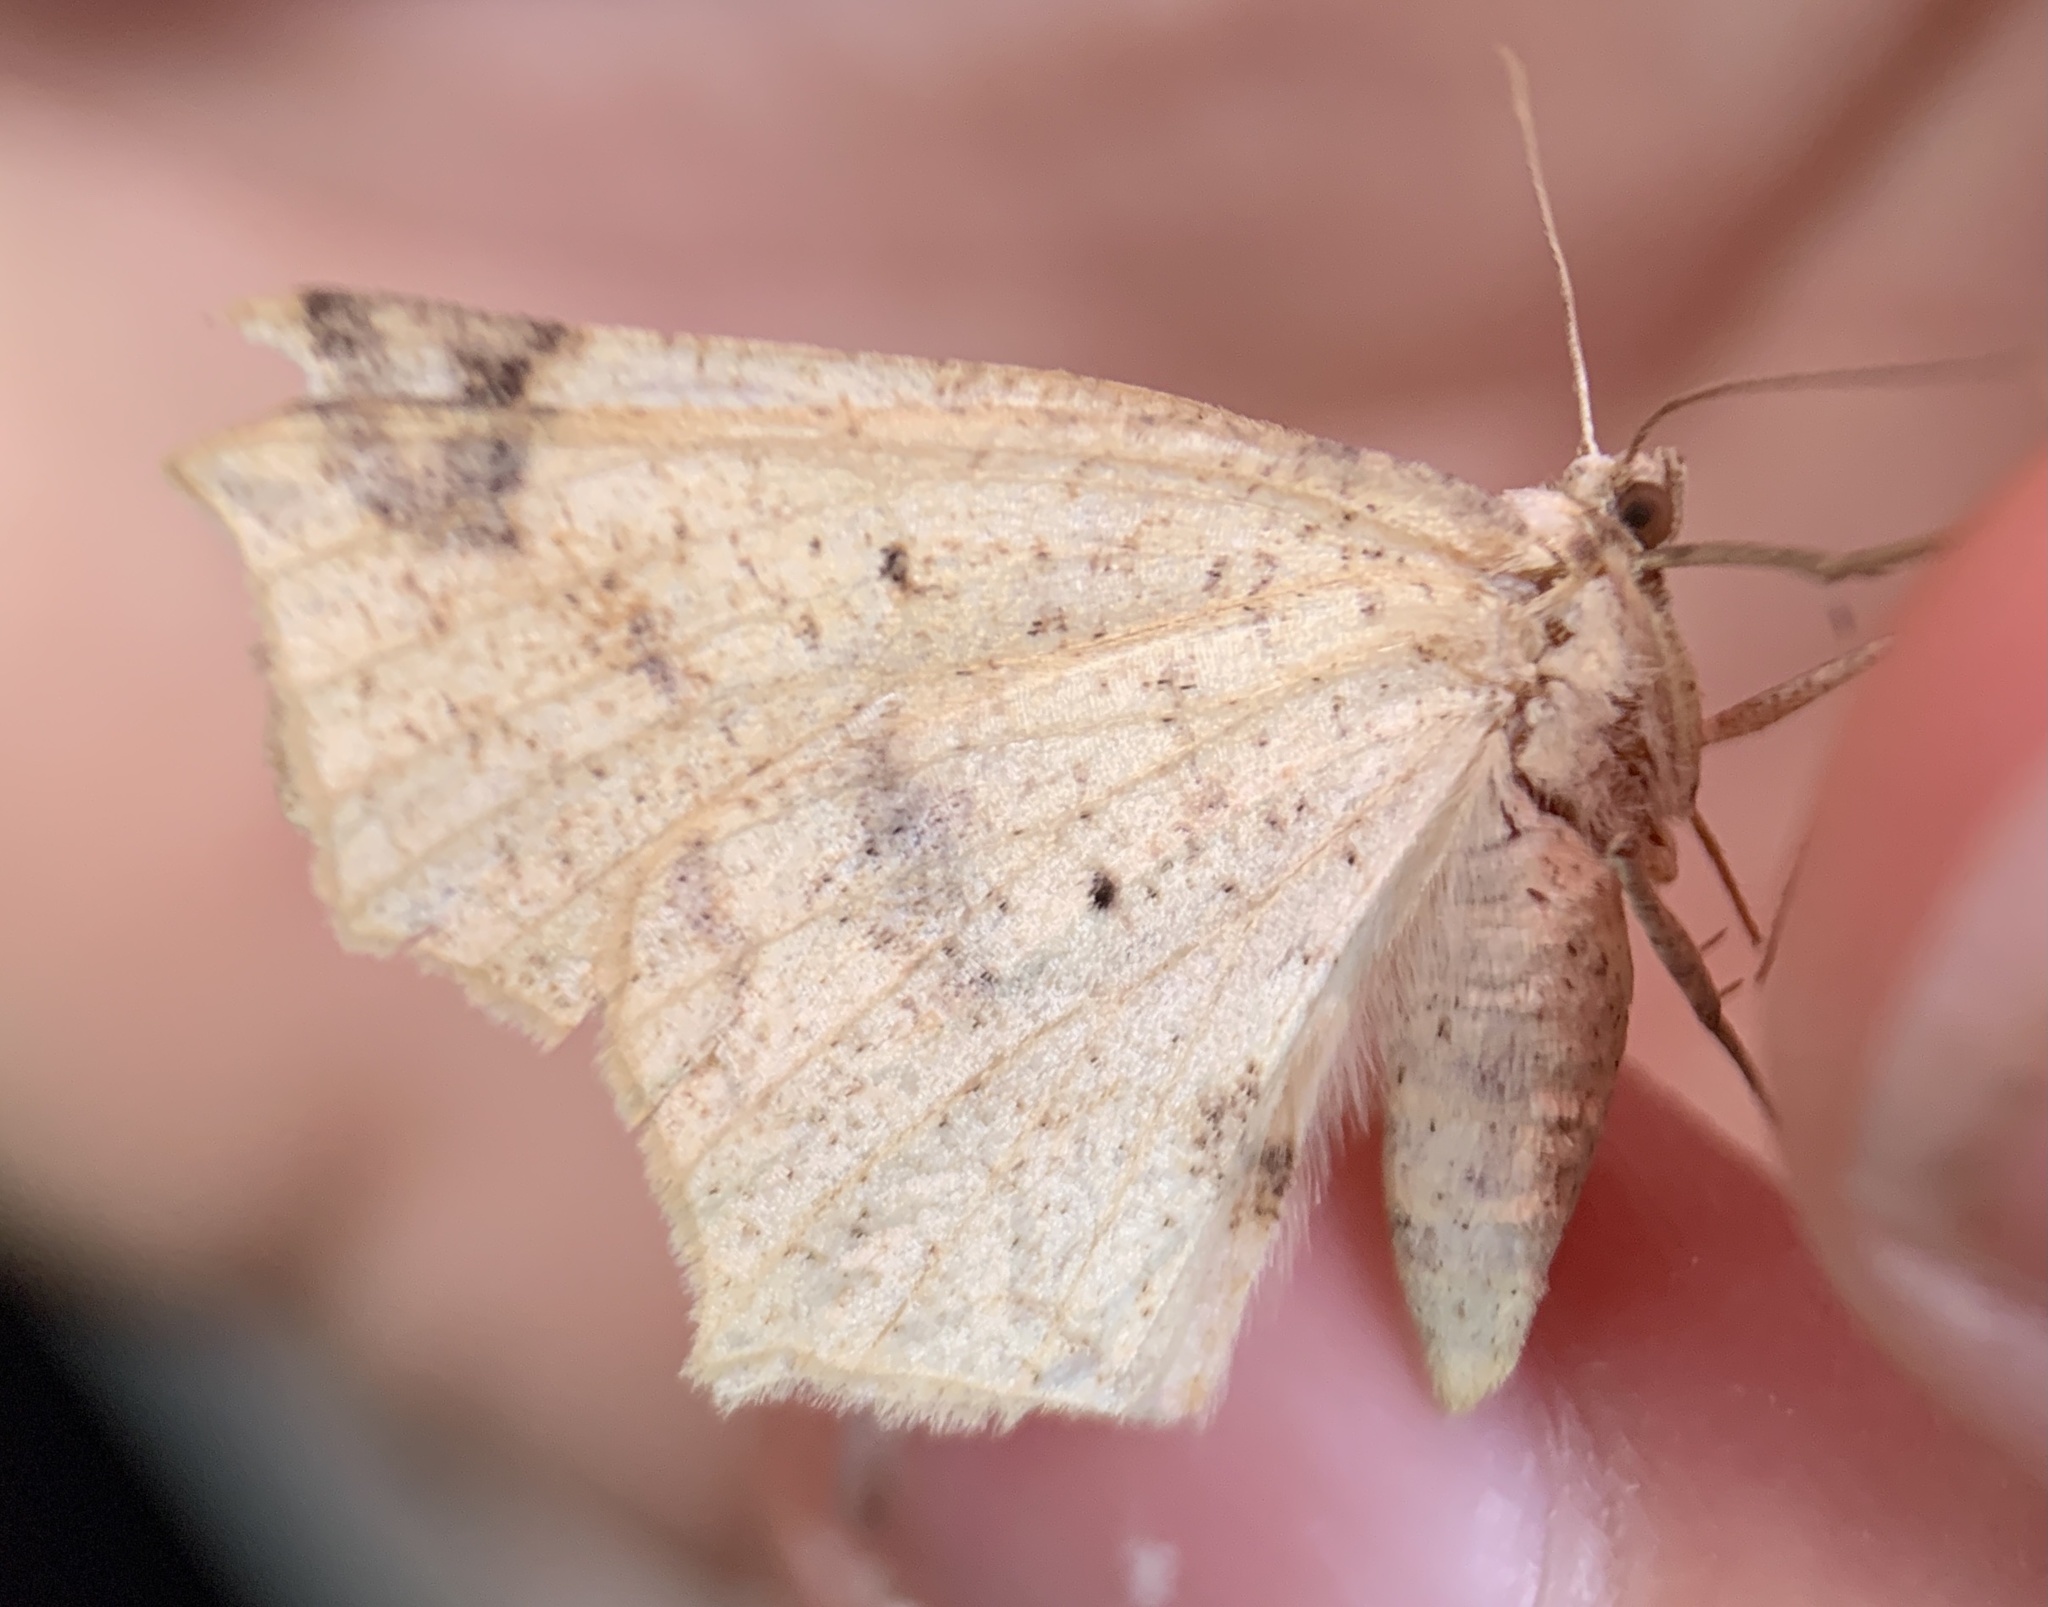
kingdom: Animalia
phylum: Arthropoda
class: Insecta
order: Lepidoptera
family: Geometridae
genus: Antepione
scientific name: Antepione thisoaria
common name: Variable antipione
